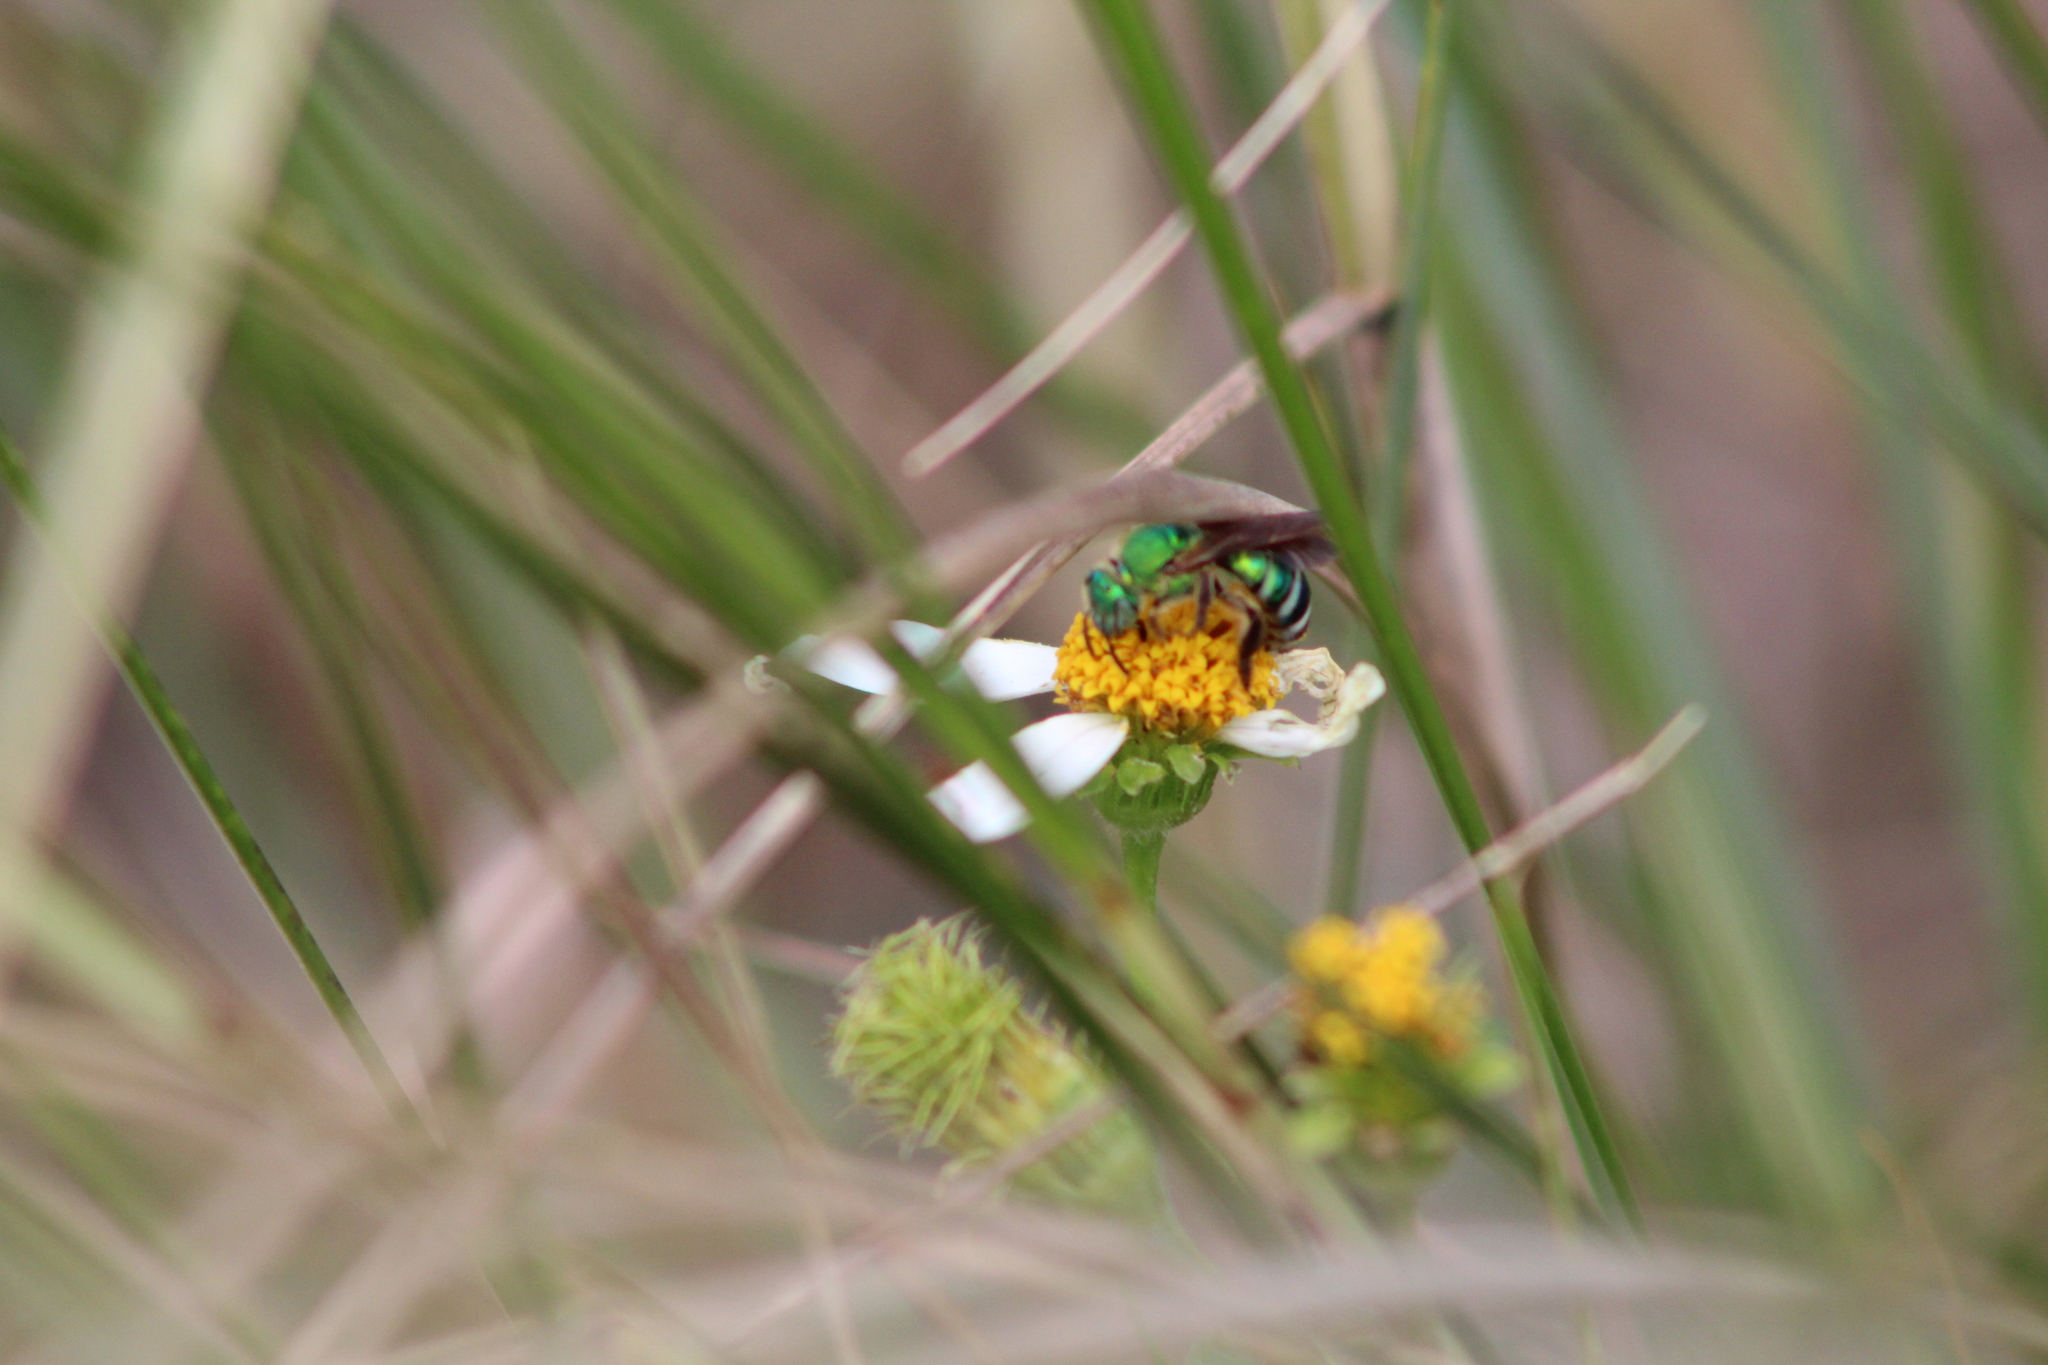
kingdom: Animalia
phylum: Arthropoda
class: Insecta
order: Hymenoptera
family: Halictidae
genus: Agapostemon
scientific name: Agapostemon splendens
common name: Brown-winged striped sweat bee
